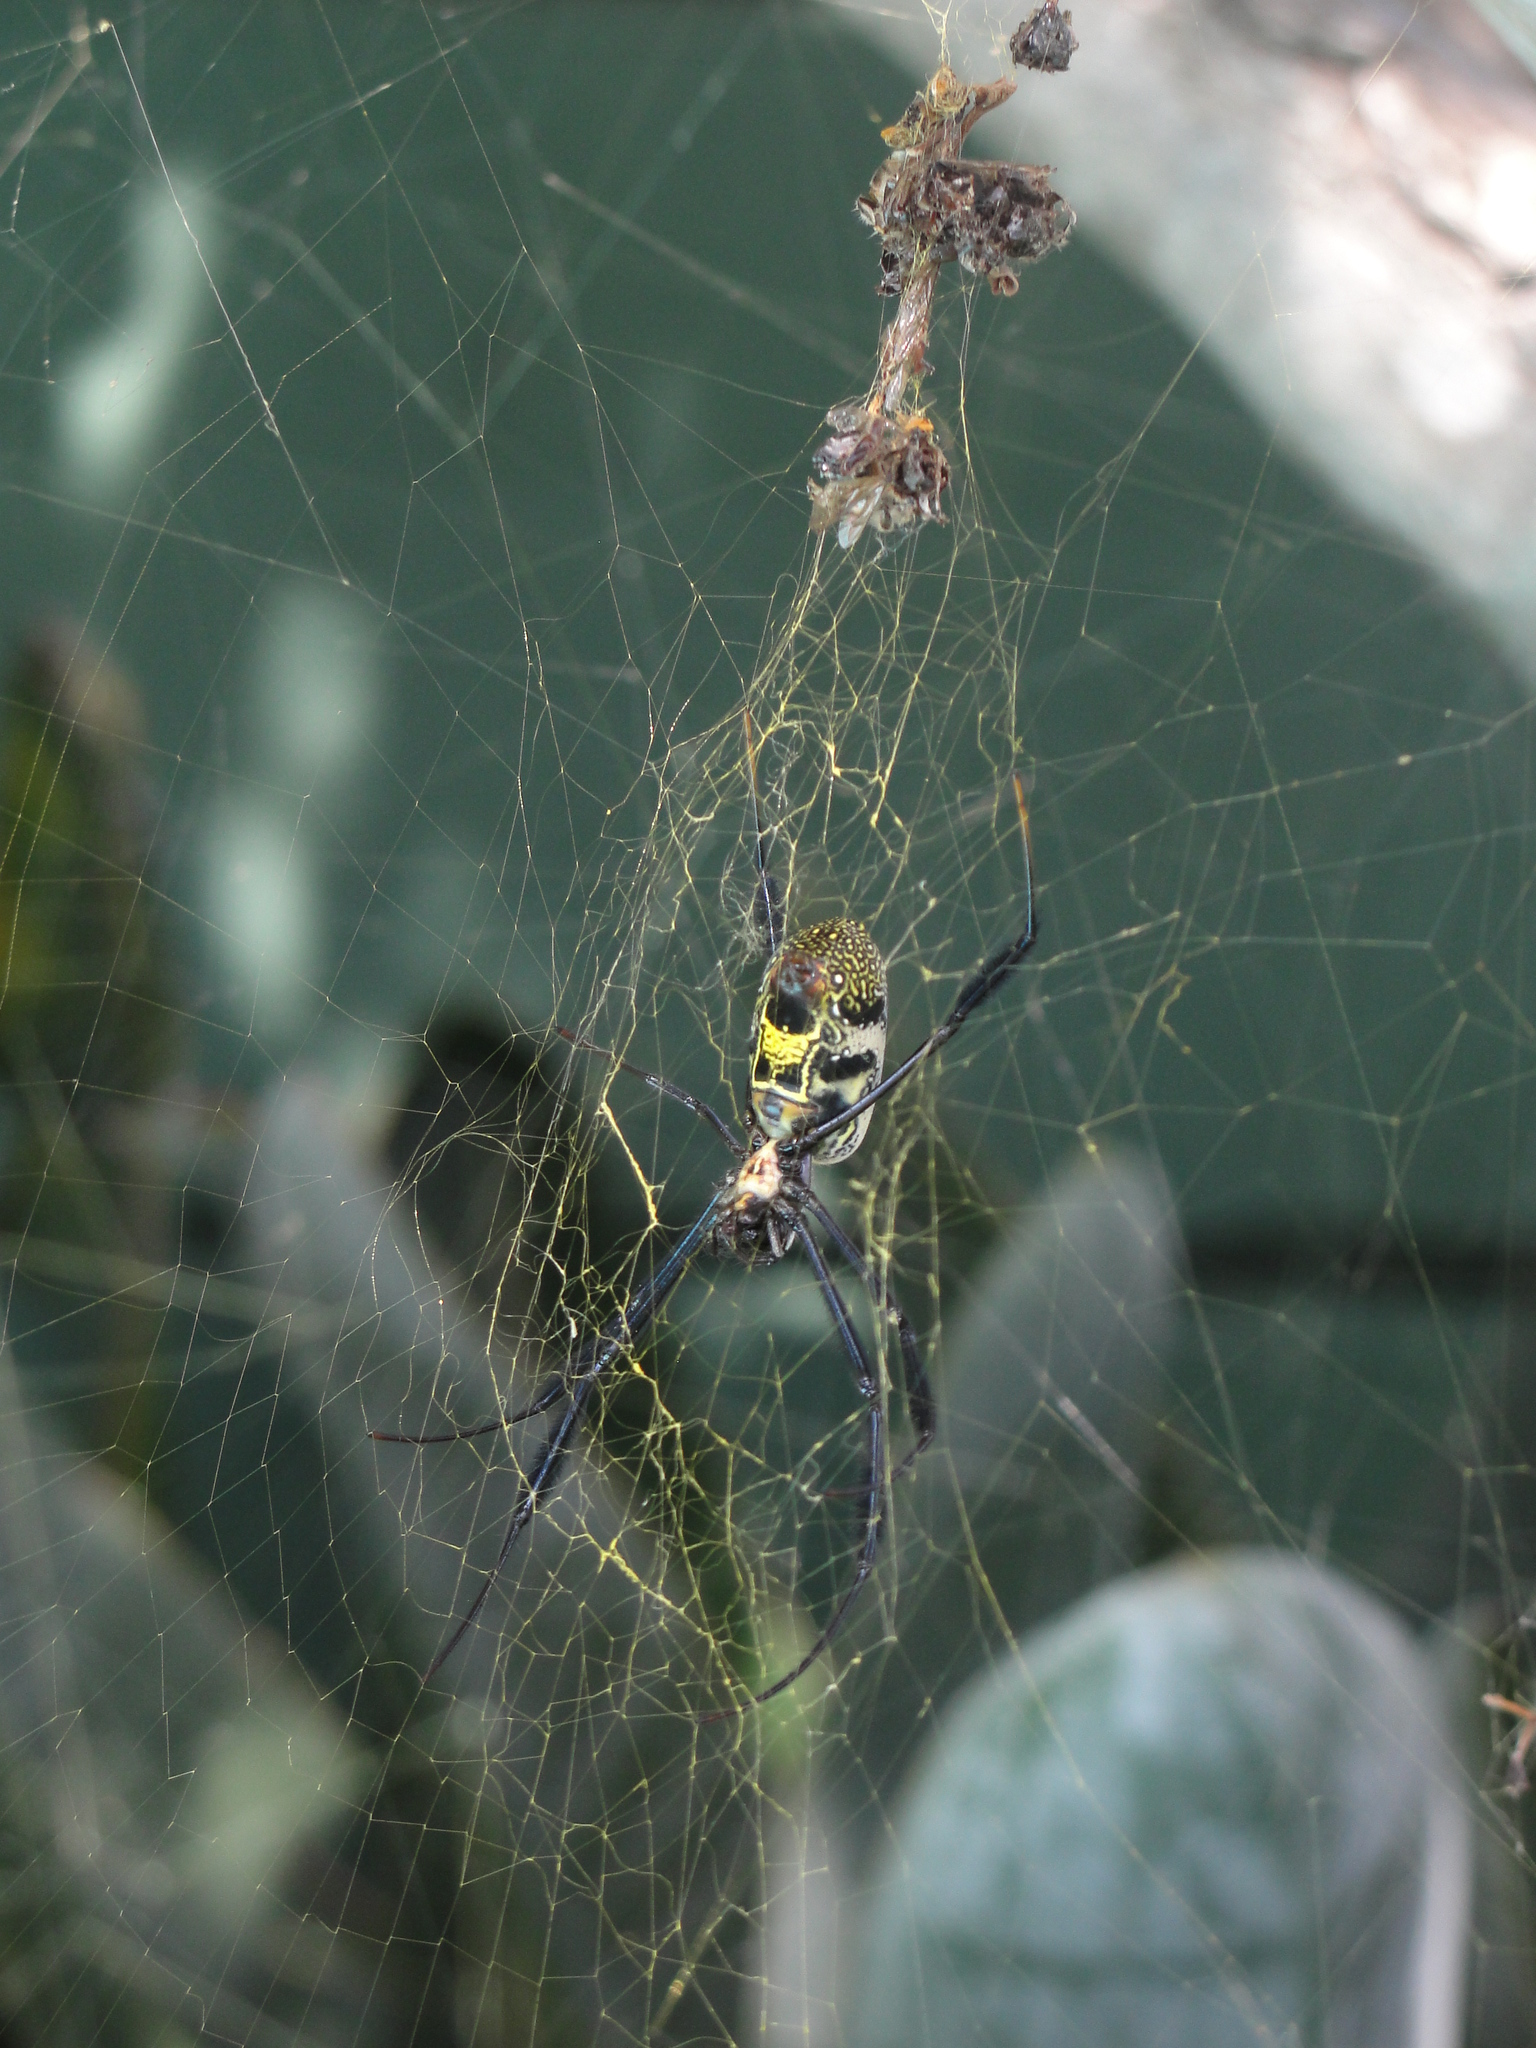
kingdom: Animalia
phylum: Arthropoda
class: Arachnida
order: Araneae
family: Araneidae
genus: Trichonephila
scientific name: Trichonephila fenestrata
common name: Hairy golden orb weaver
